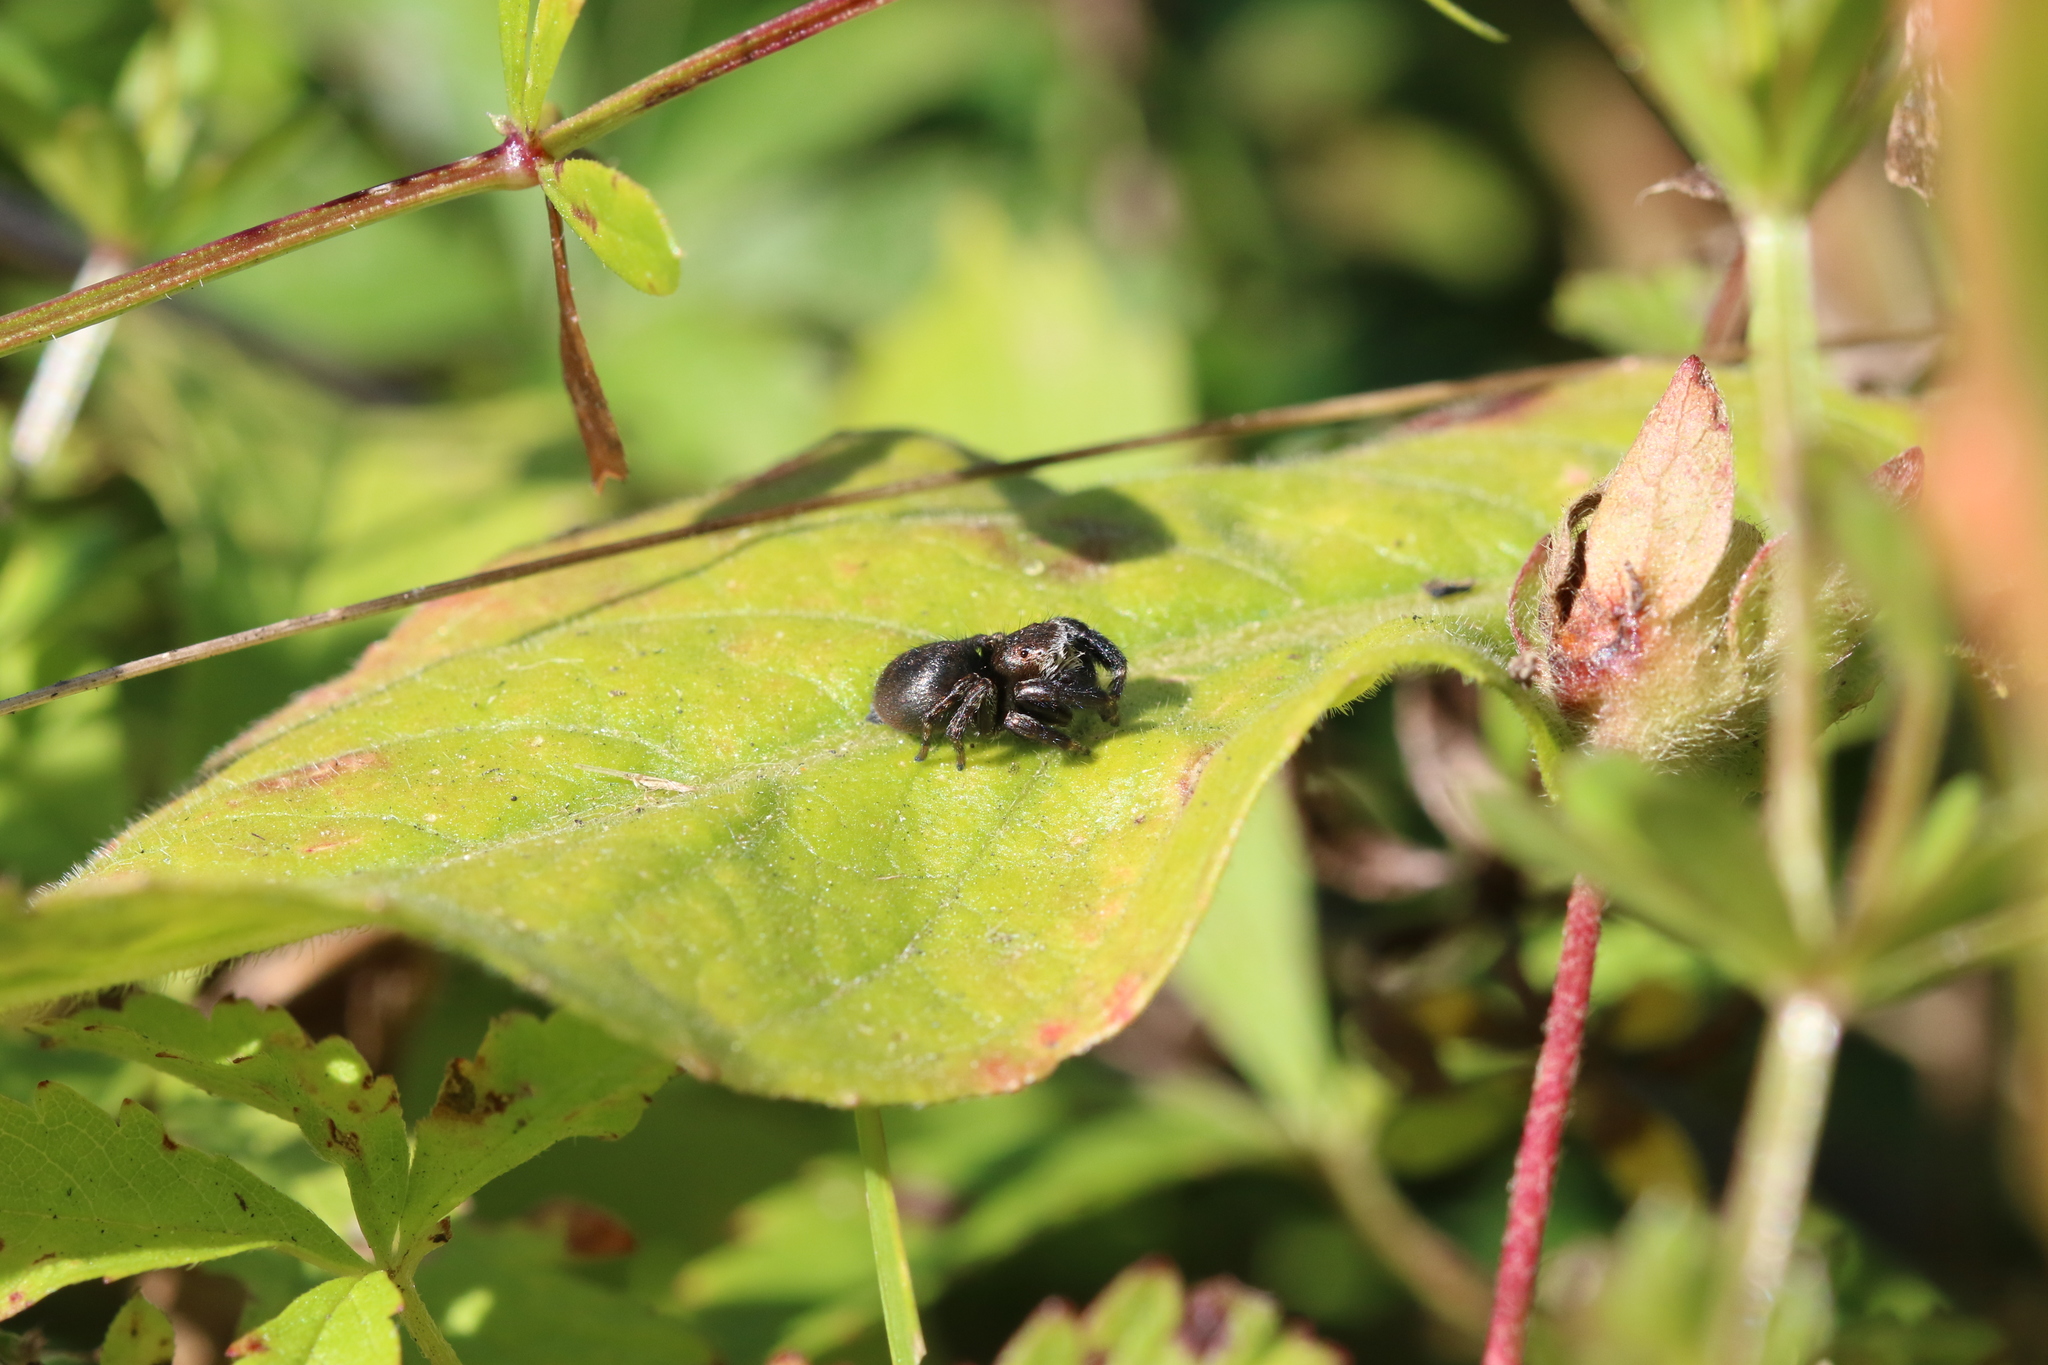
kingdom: Animalia
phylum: Arthropoda
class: Arachnida
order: Araneae
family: Salticidae
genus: Evarcha
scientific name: Evarcha arcuata
